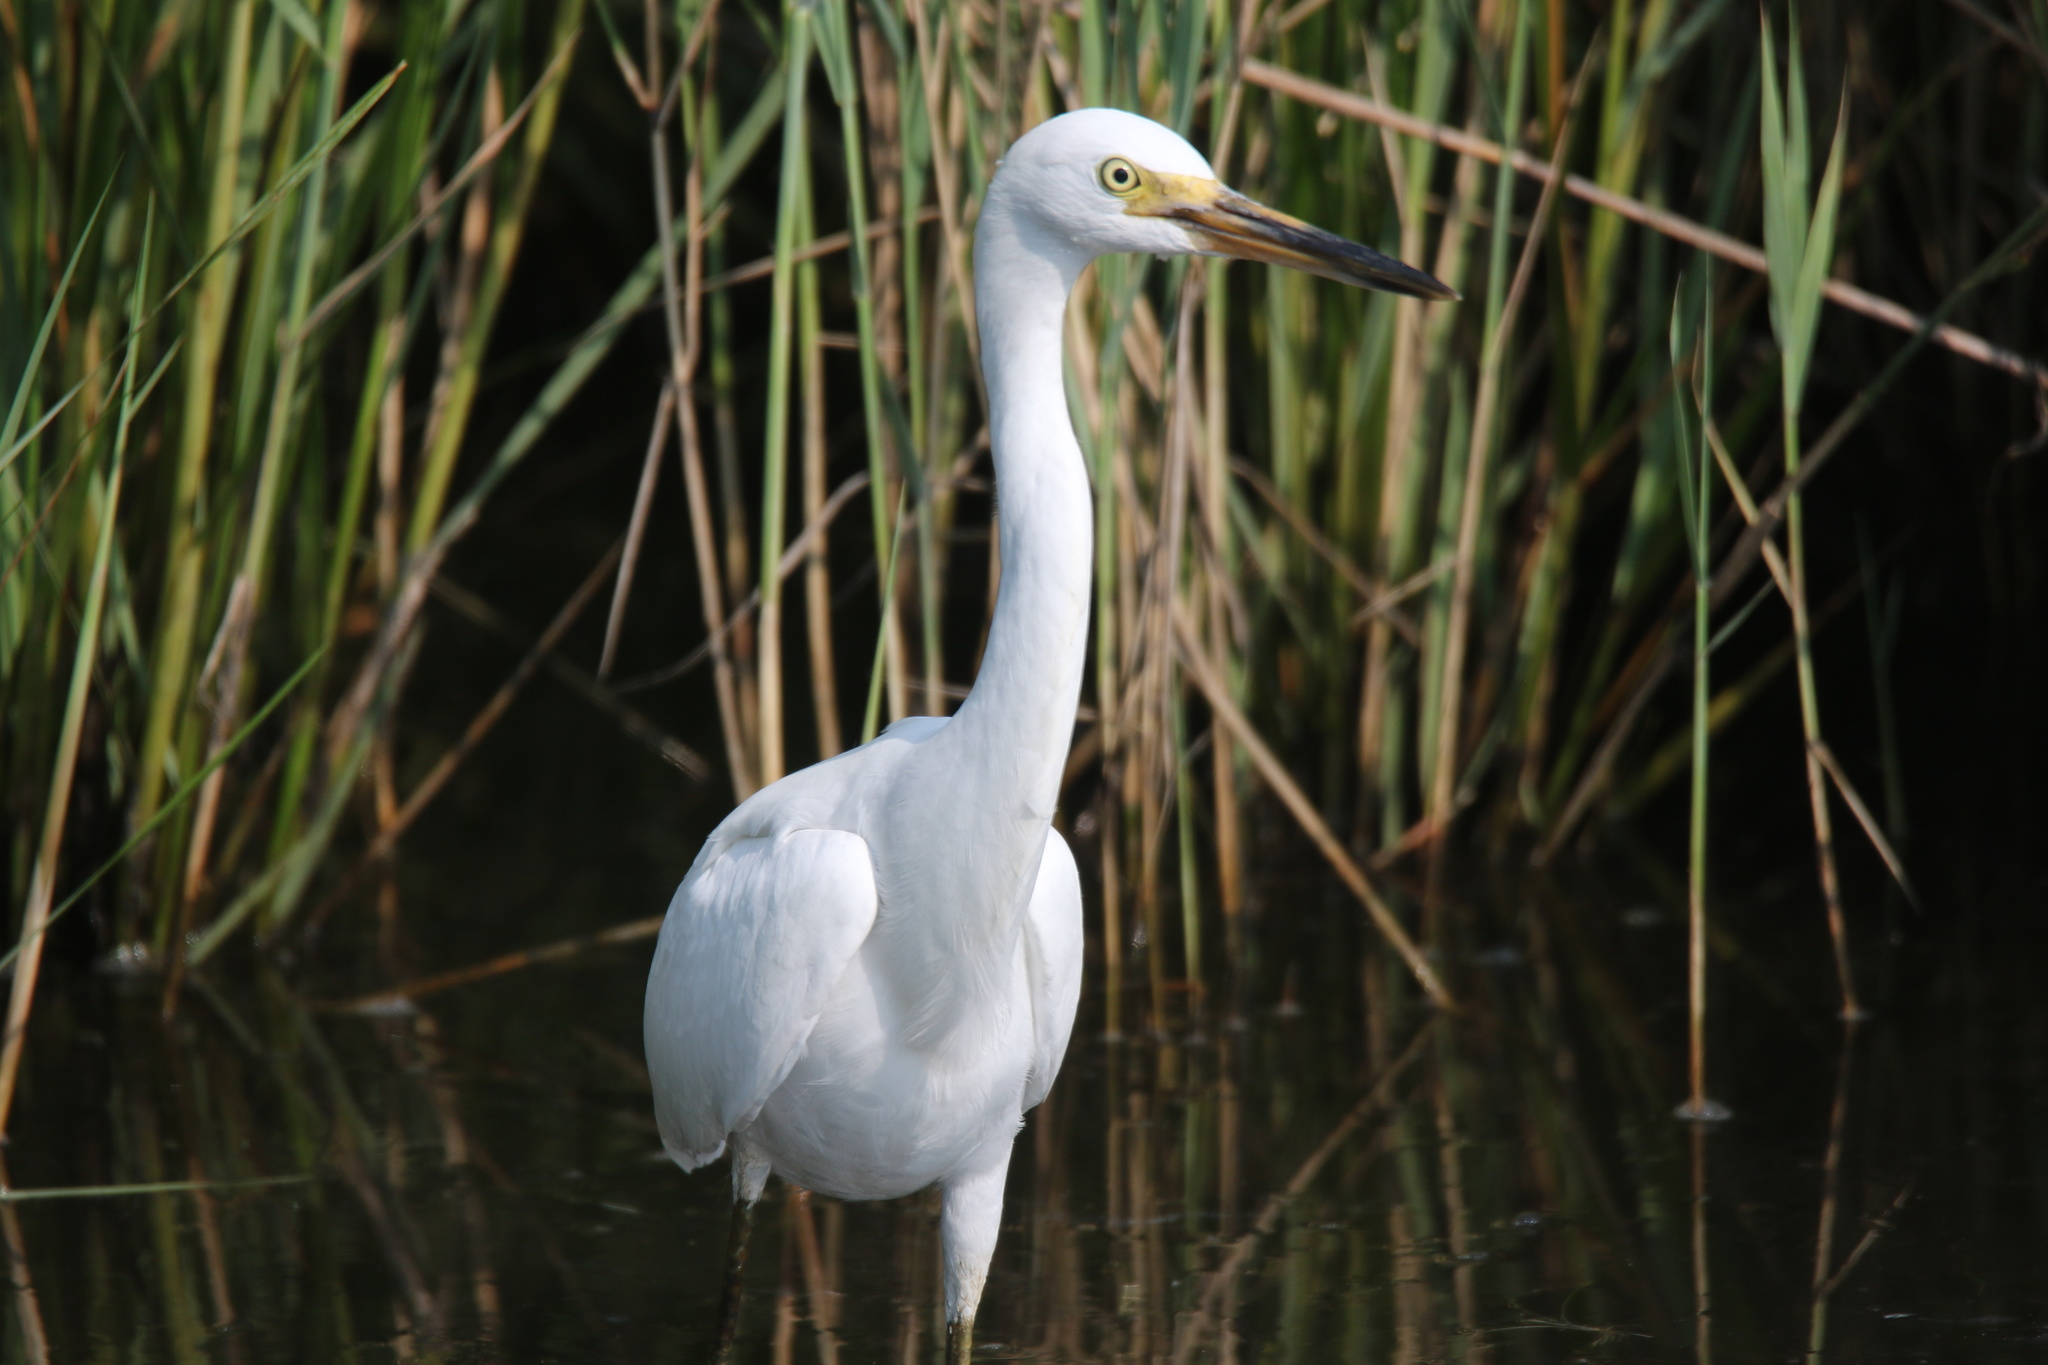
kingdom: Animalia
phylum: Chordata
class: Aves
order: Pelecaniformes
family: Ardeidae
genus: Egretta
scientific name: Egretta thula
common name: Snowy egret
